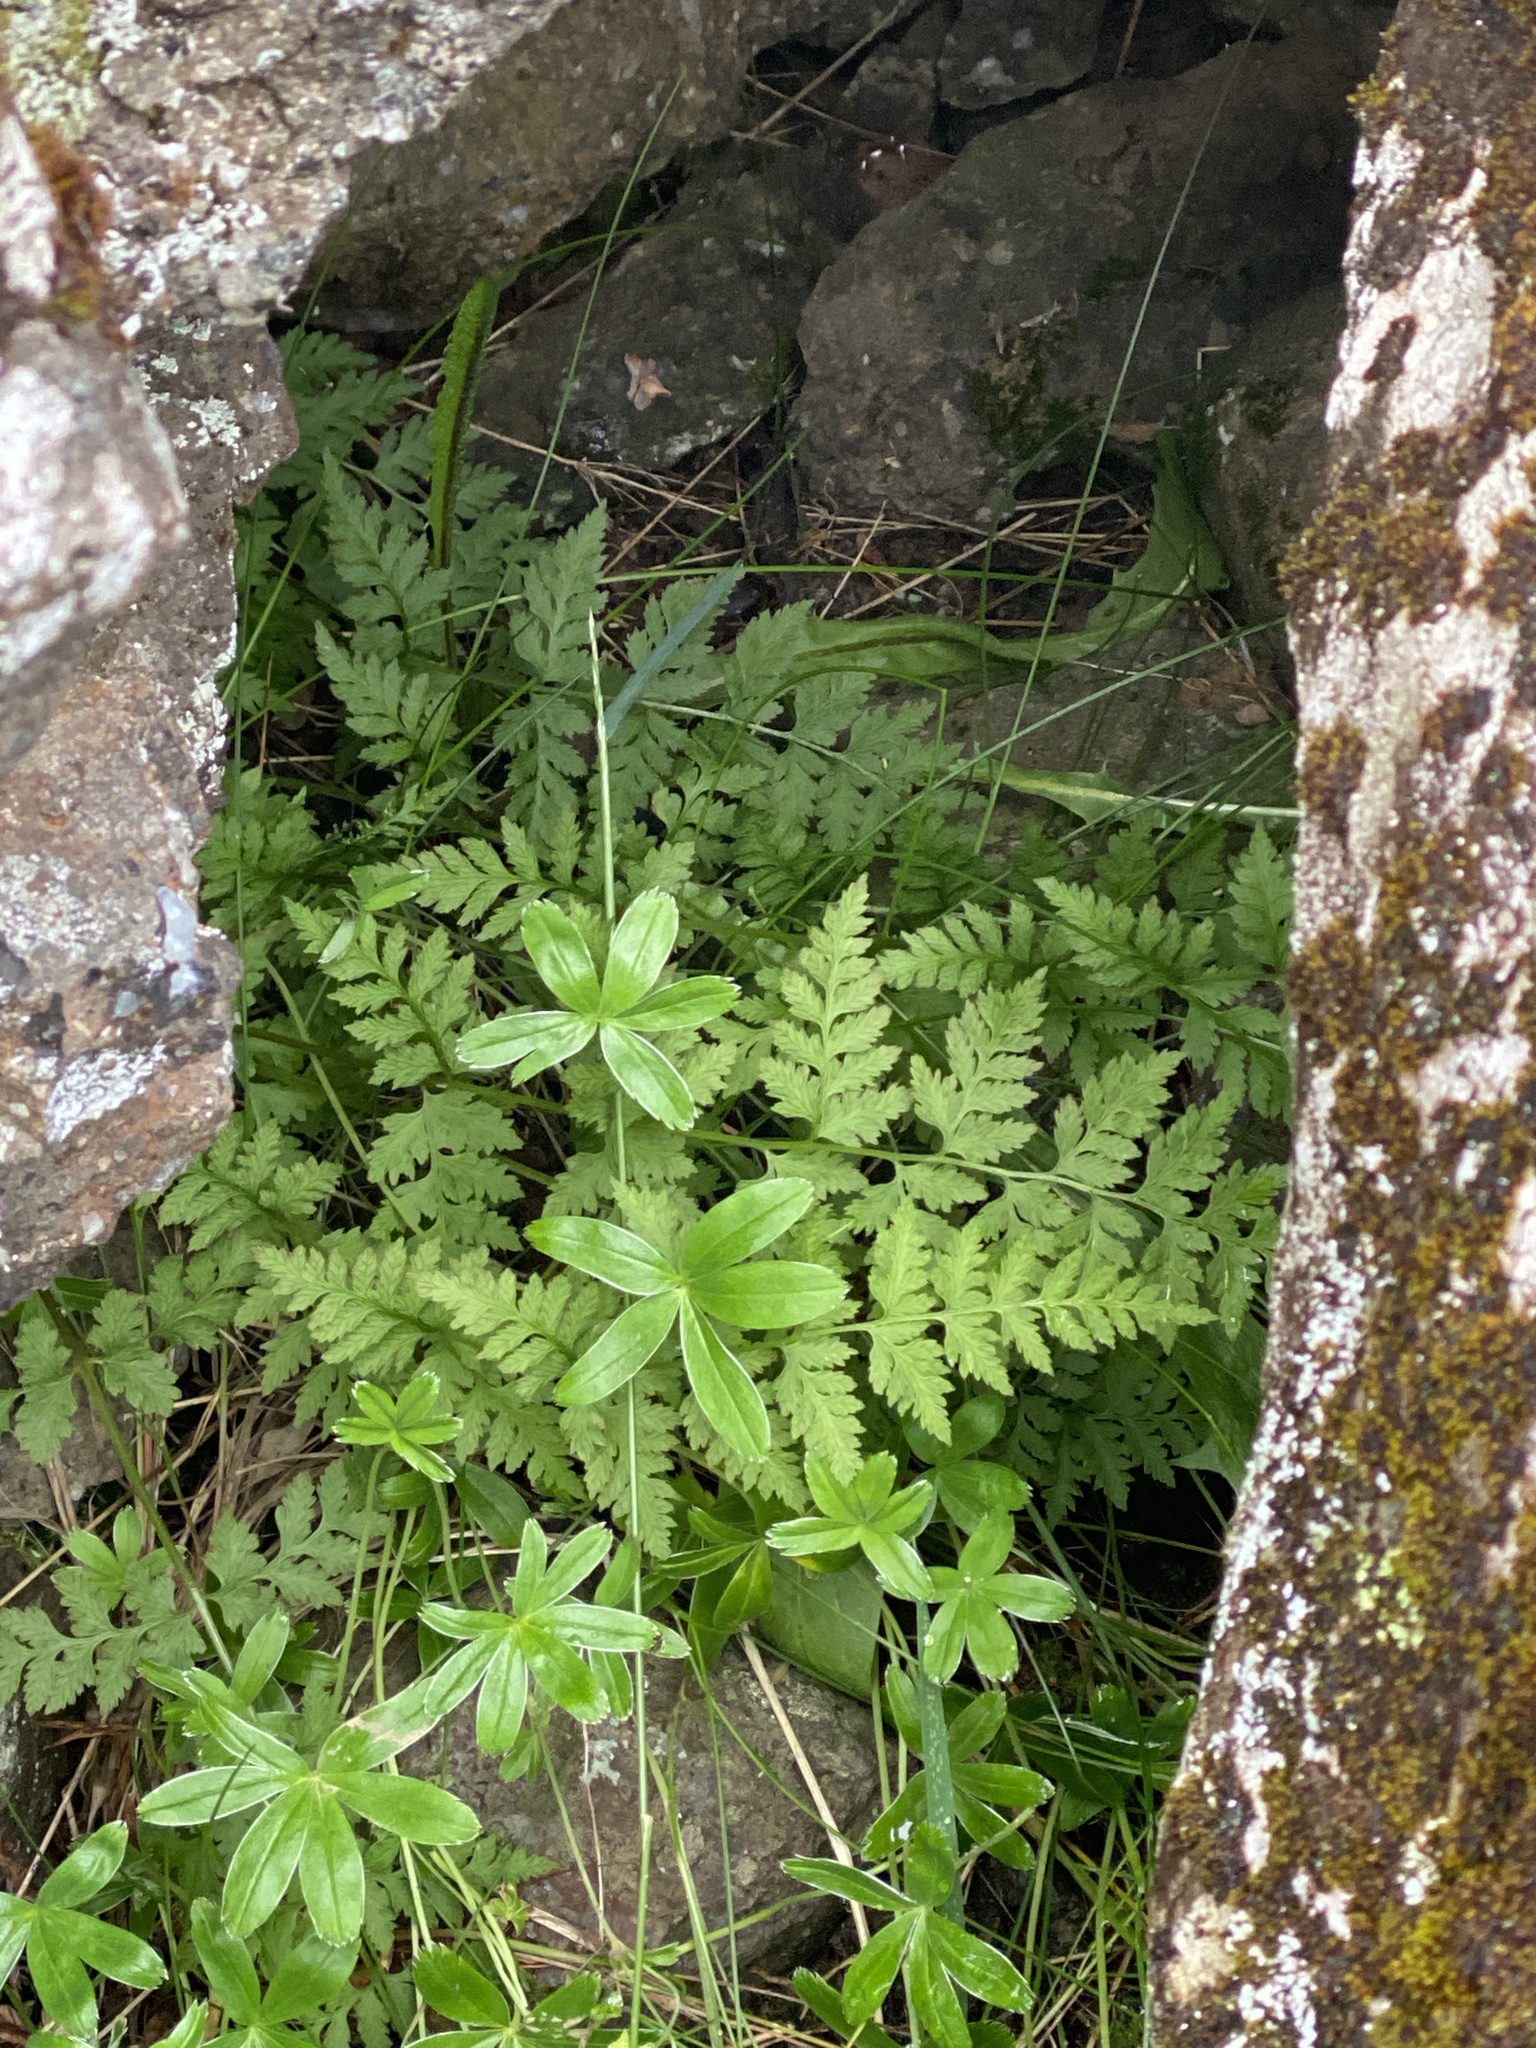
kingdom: Plantae
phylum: Tracheophyta
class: Polypodiopsida
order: Polypodiales
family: Cystopteridaceae
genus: Cystopteris
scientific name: Cystopteris fragilis
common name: Brittle bladder fern
